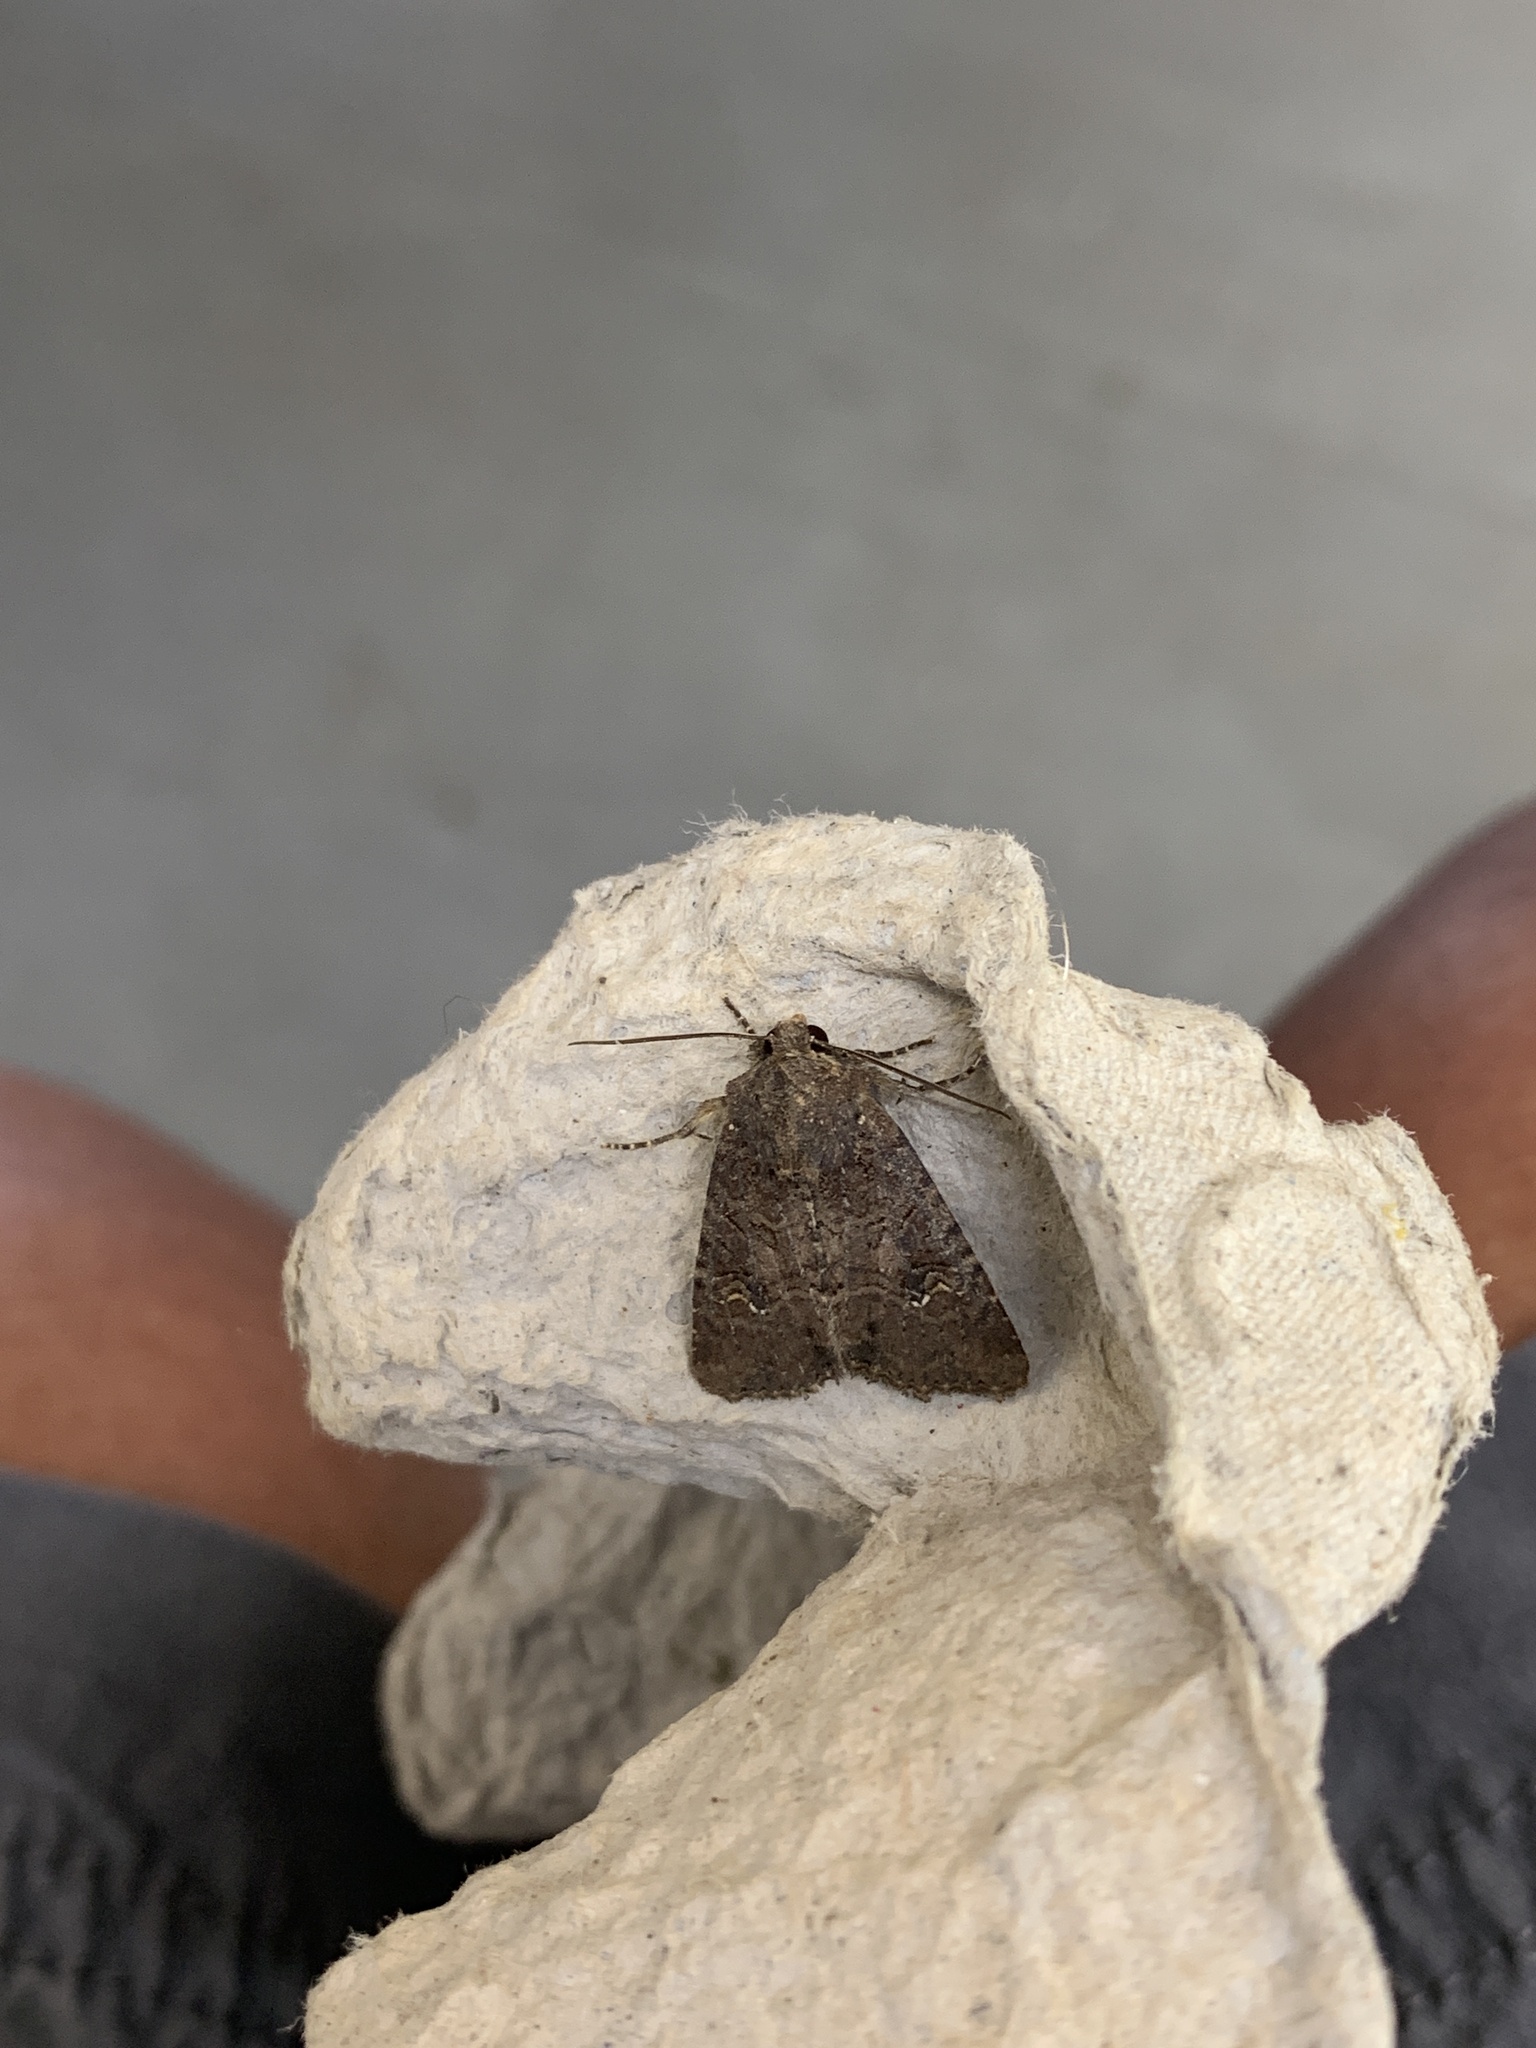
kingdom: Animalia
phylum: Arthropoda
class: Insecta
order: Lepidoptera
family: Noctuidae
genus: Mesapamea
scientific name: Mesapamea
